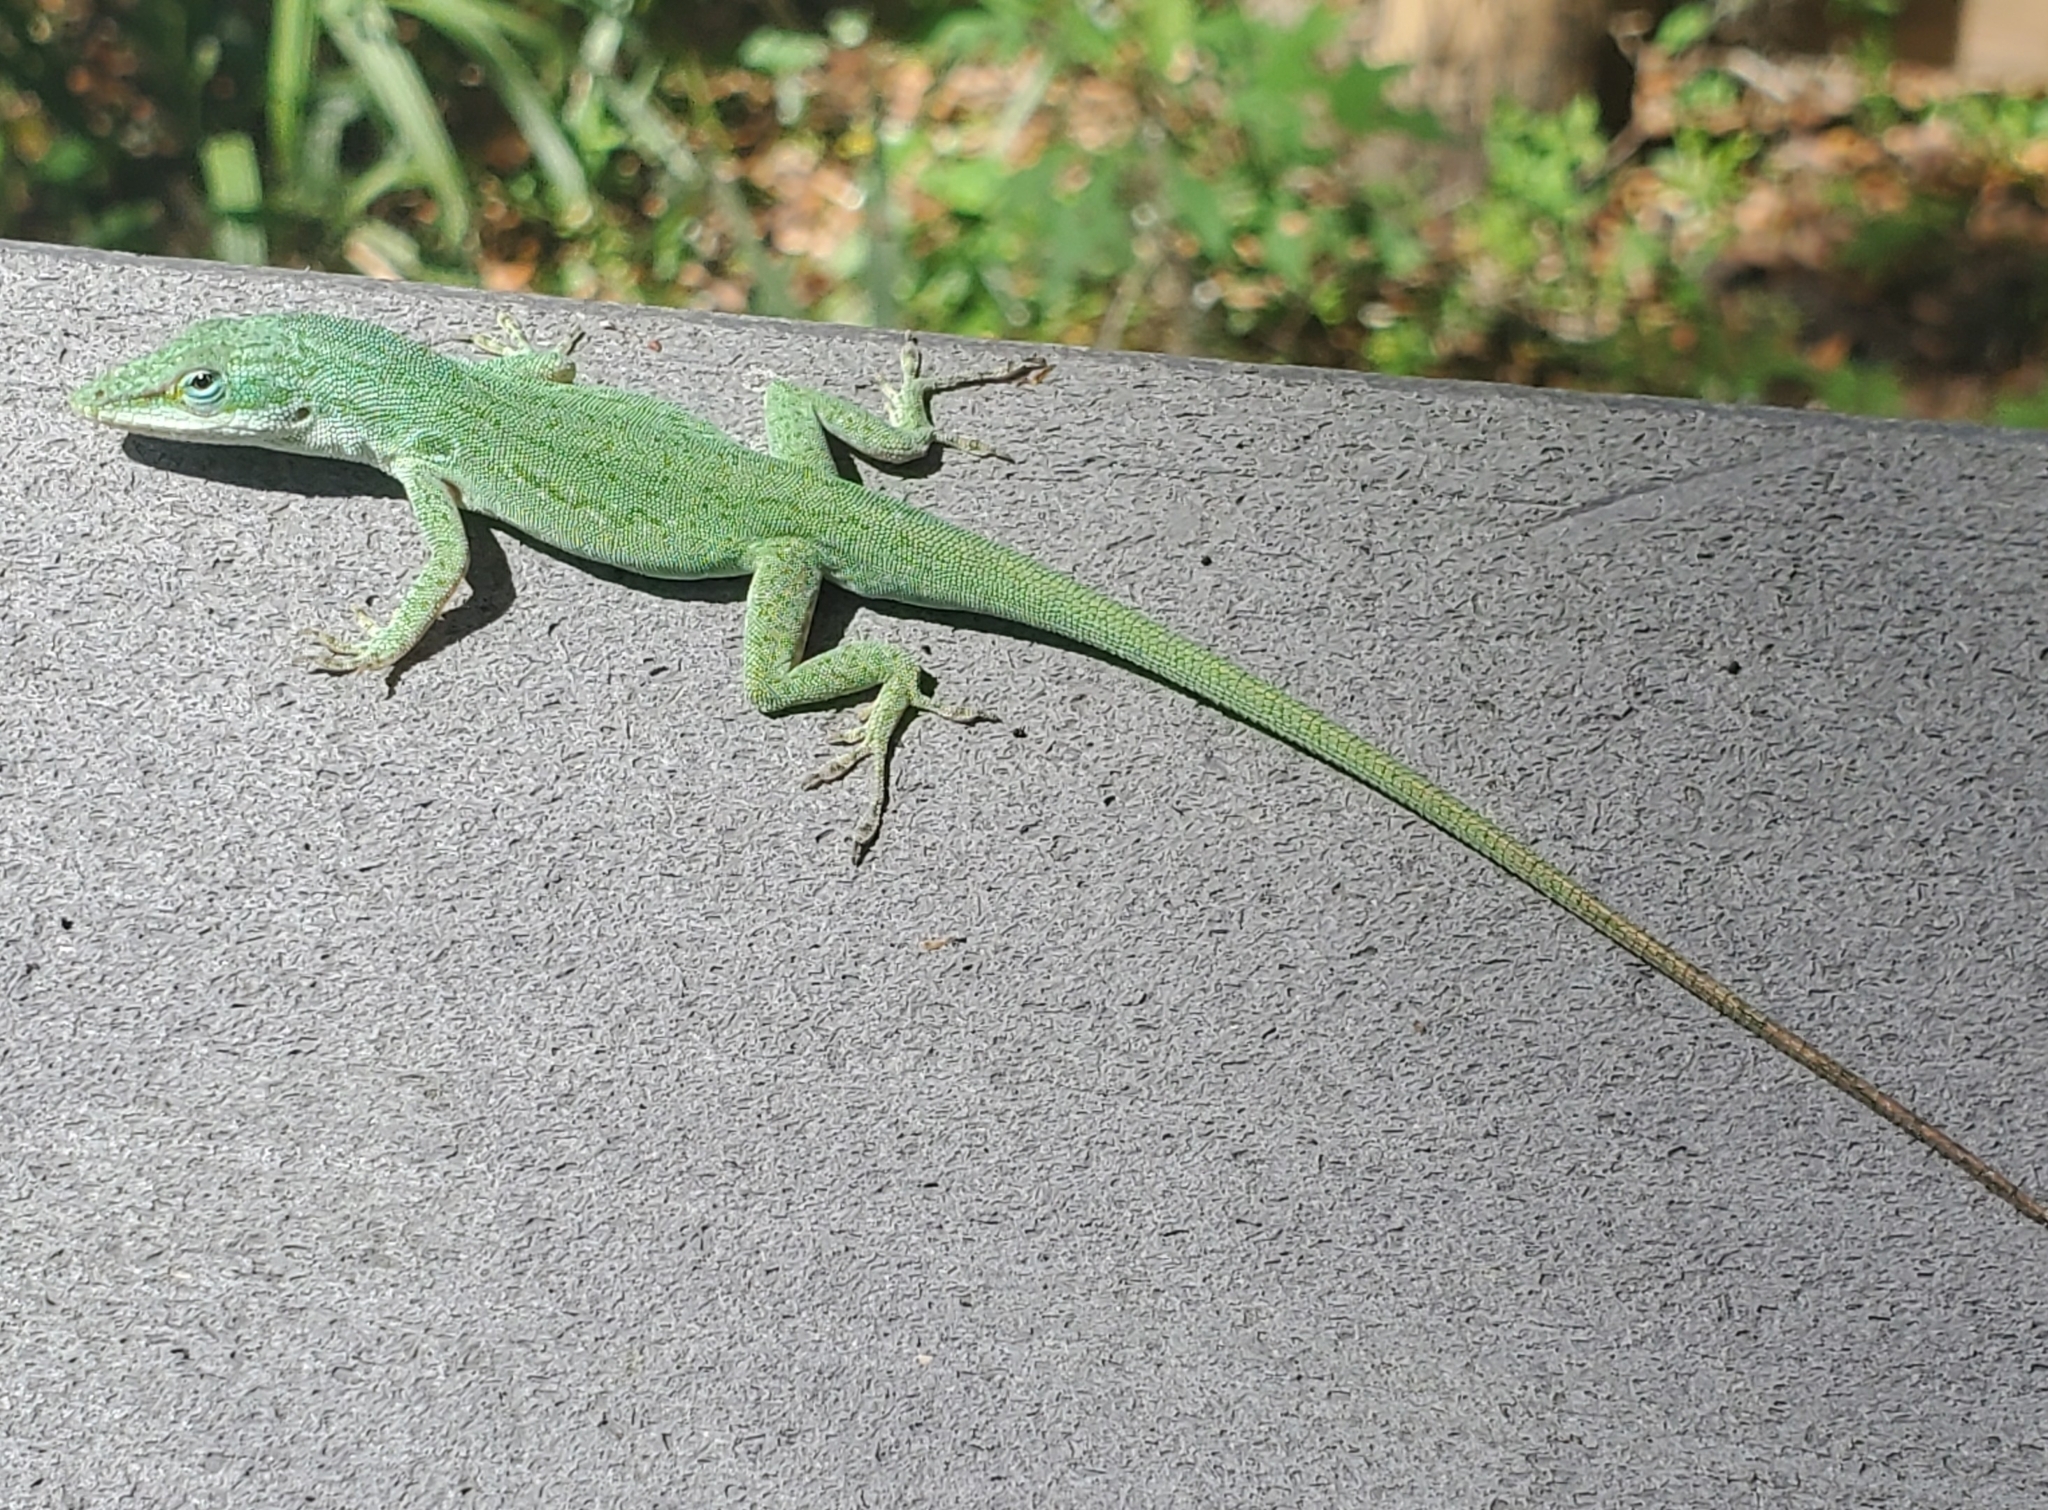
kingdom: Animalia
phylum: Chordata
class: Squamata
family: Dactyloidae
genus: Anolis
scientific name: Anolis carolinensis
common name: Green anole
